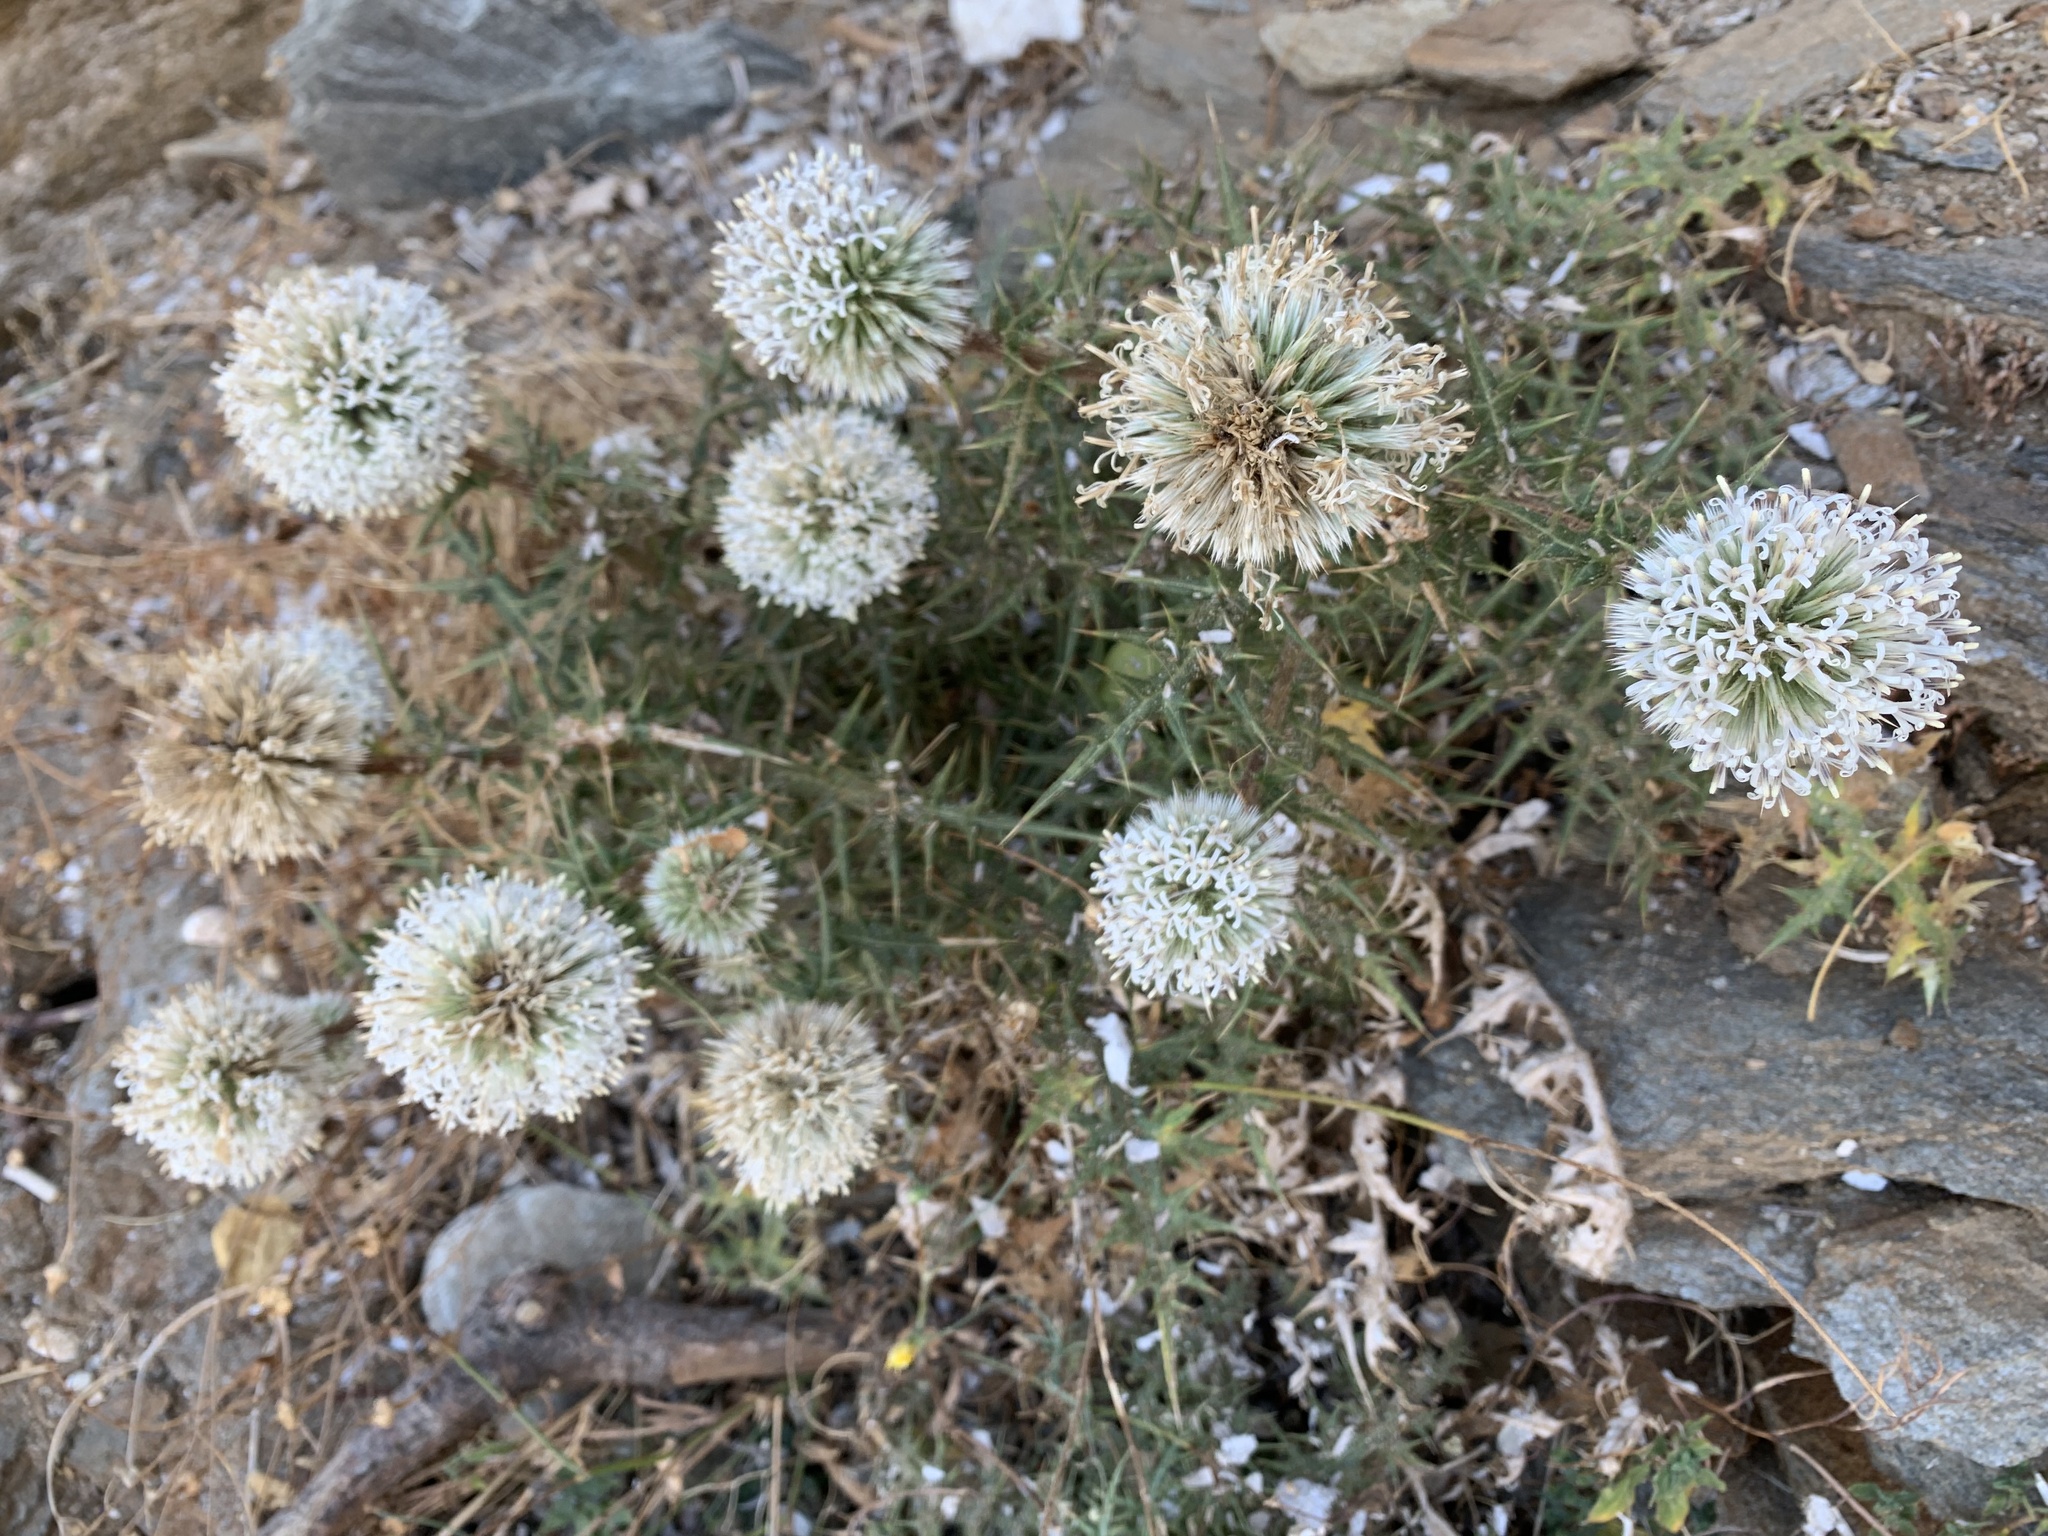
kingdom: Plantae
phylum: Tracheophyta
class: Magnoliopsida
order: Asterales
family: Asteraceae
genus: Echinops
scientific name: Echinops spinosissimus
